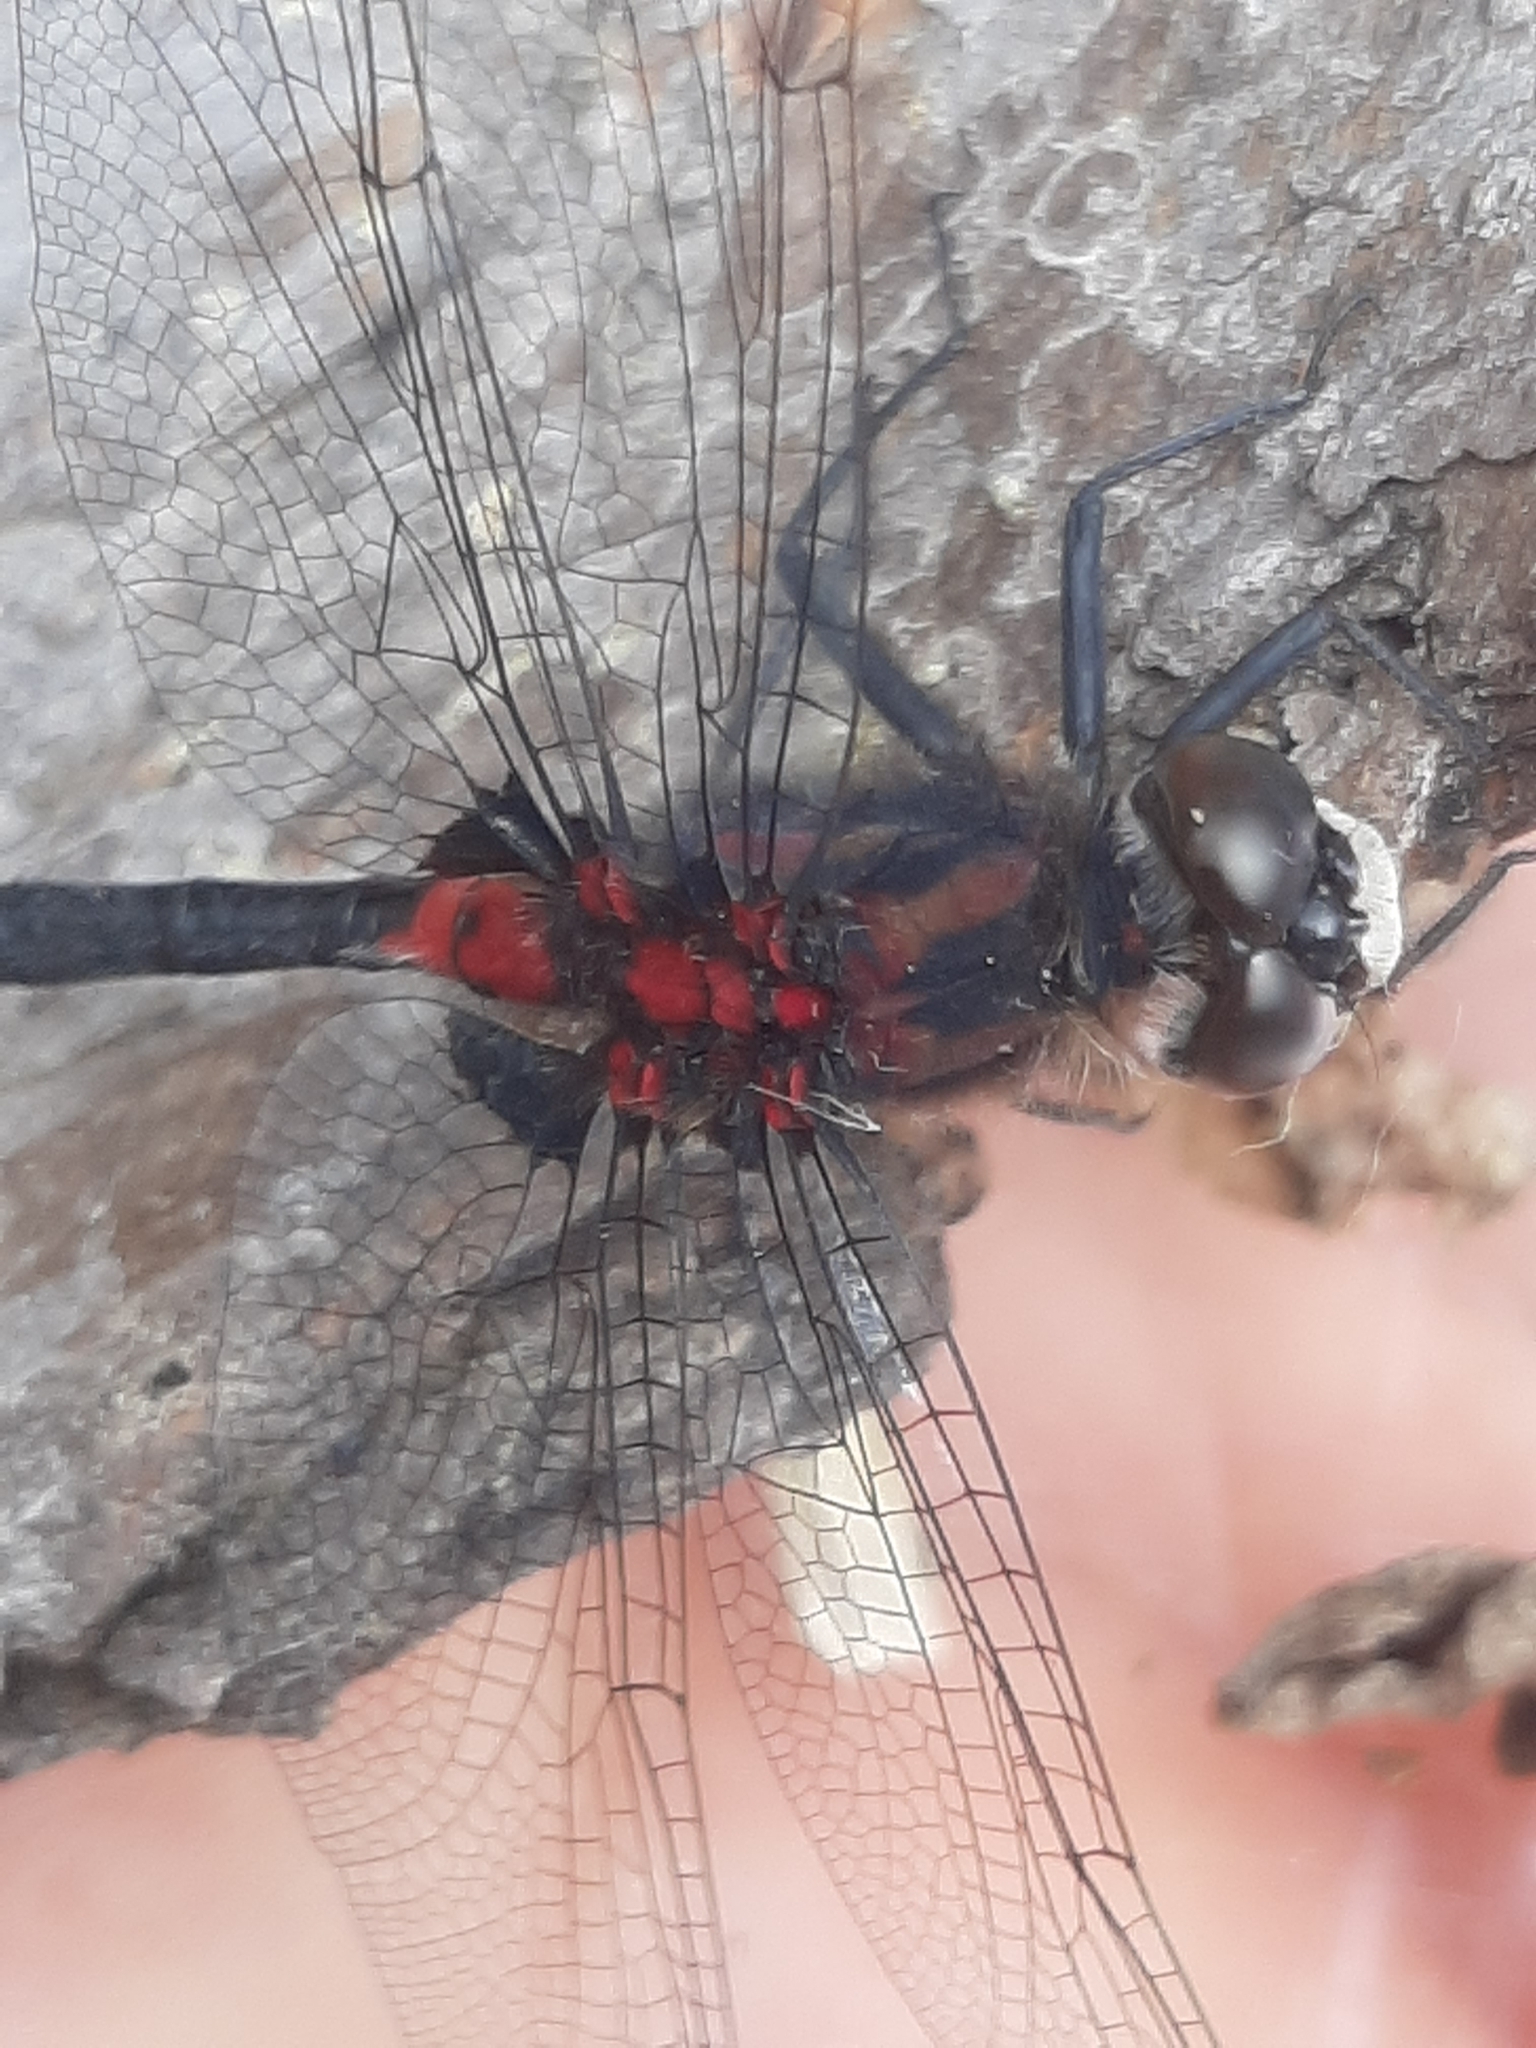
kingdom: Animalia
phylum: Arthropoda
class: Insecta
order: Odonata
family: Libellulidae
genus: Leucorrhinia
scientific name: Leucorrhinia glacialis
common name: Crimson-ringed whiteface
